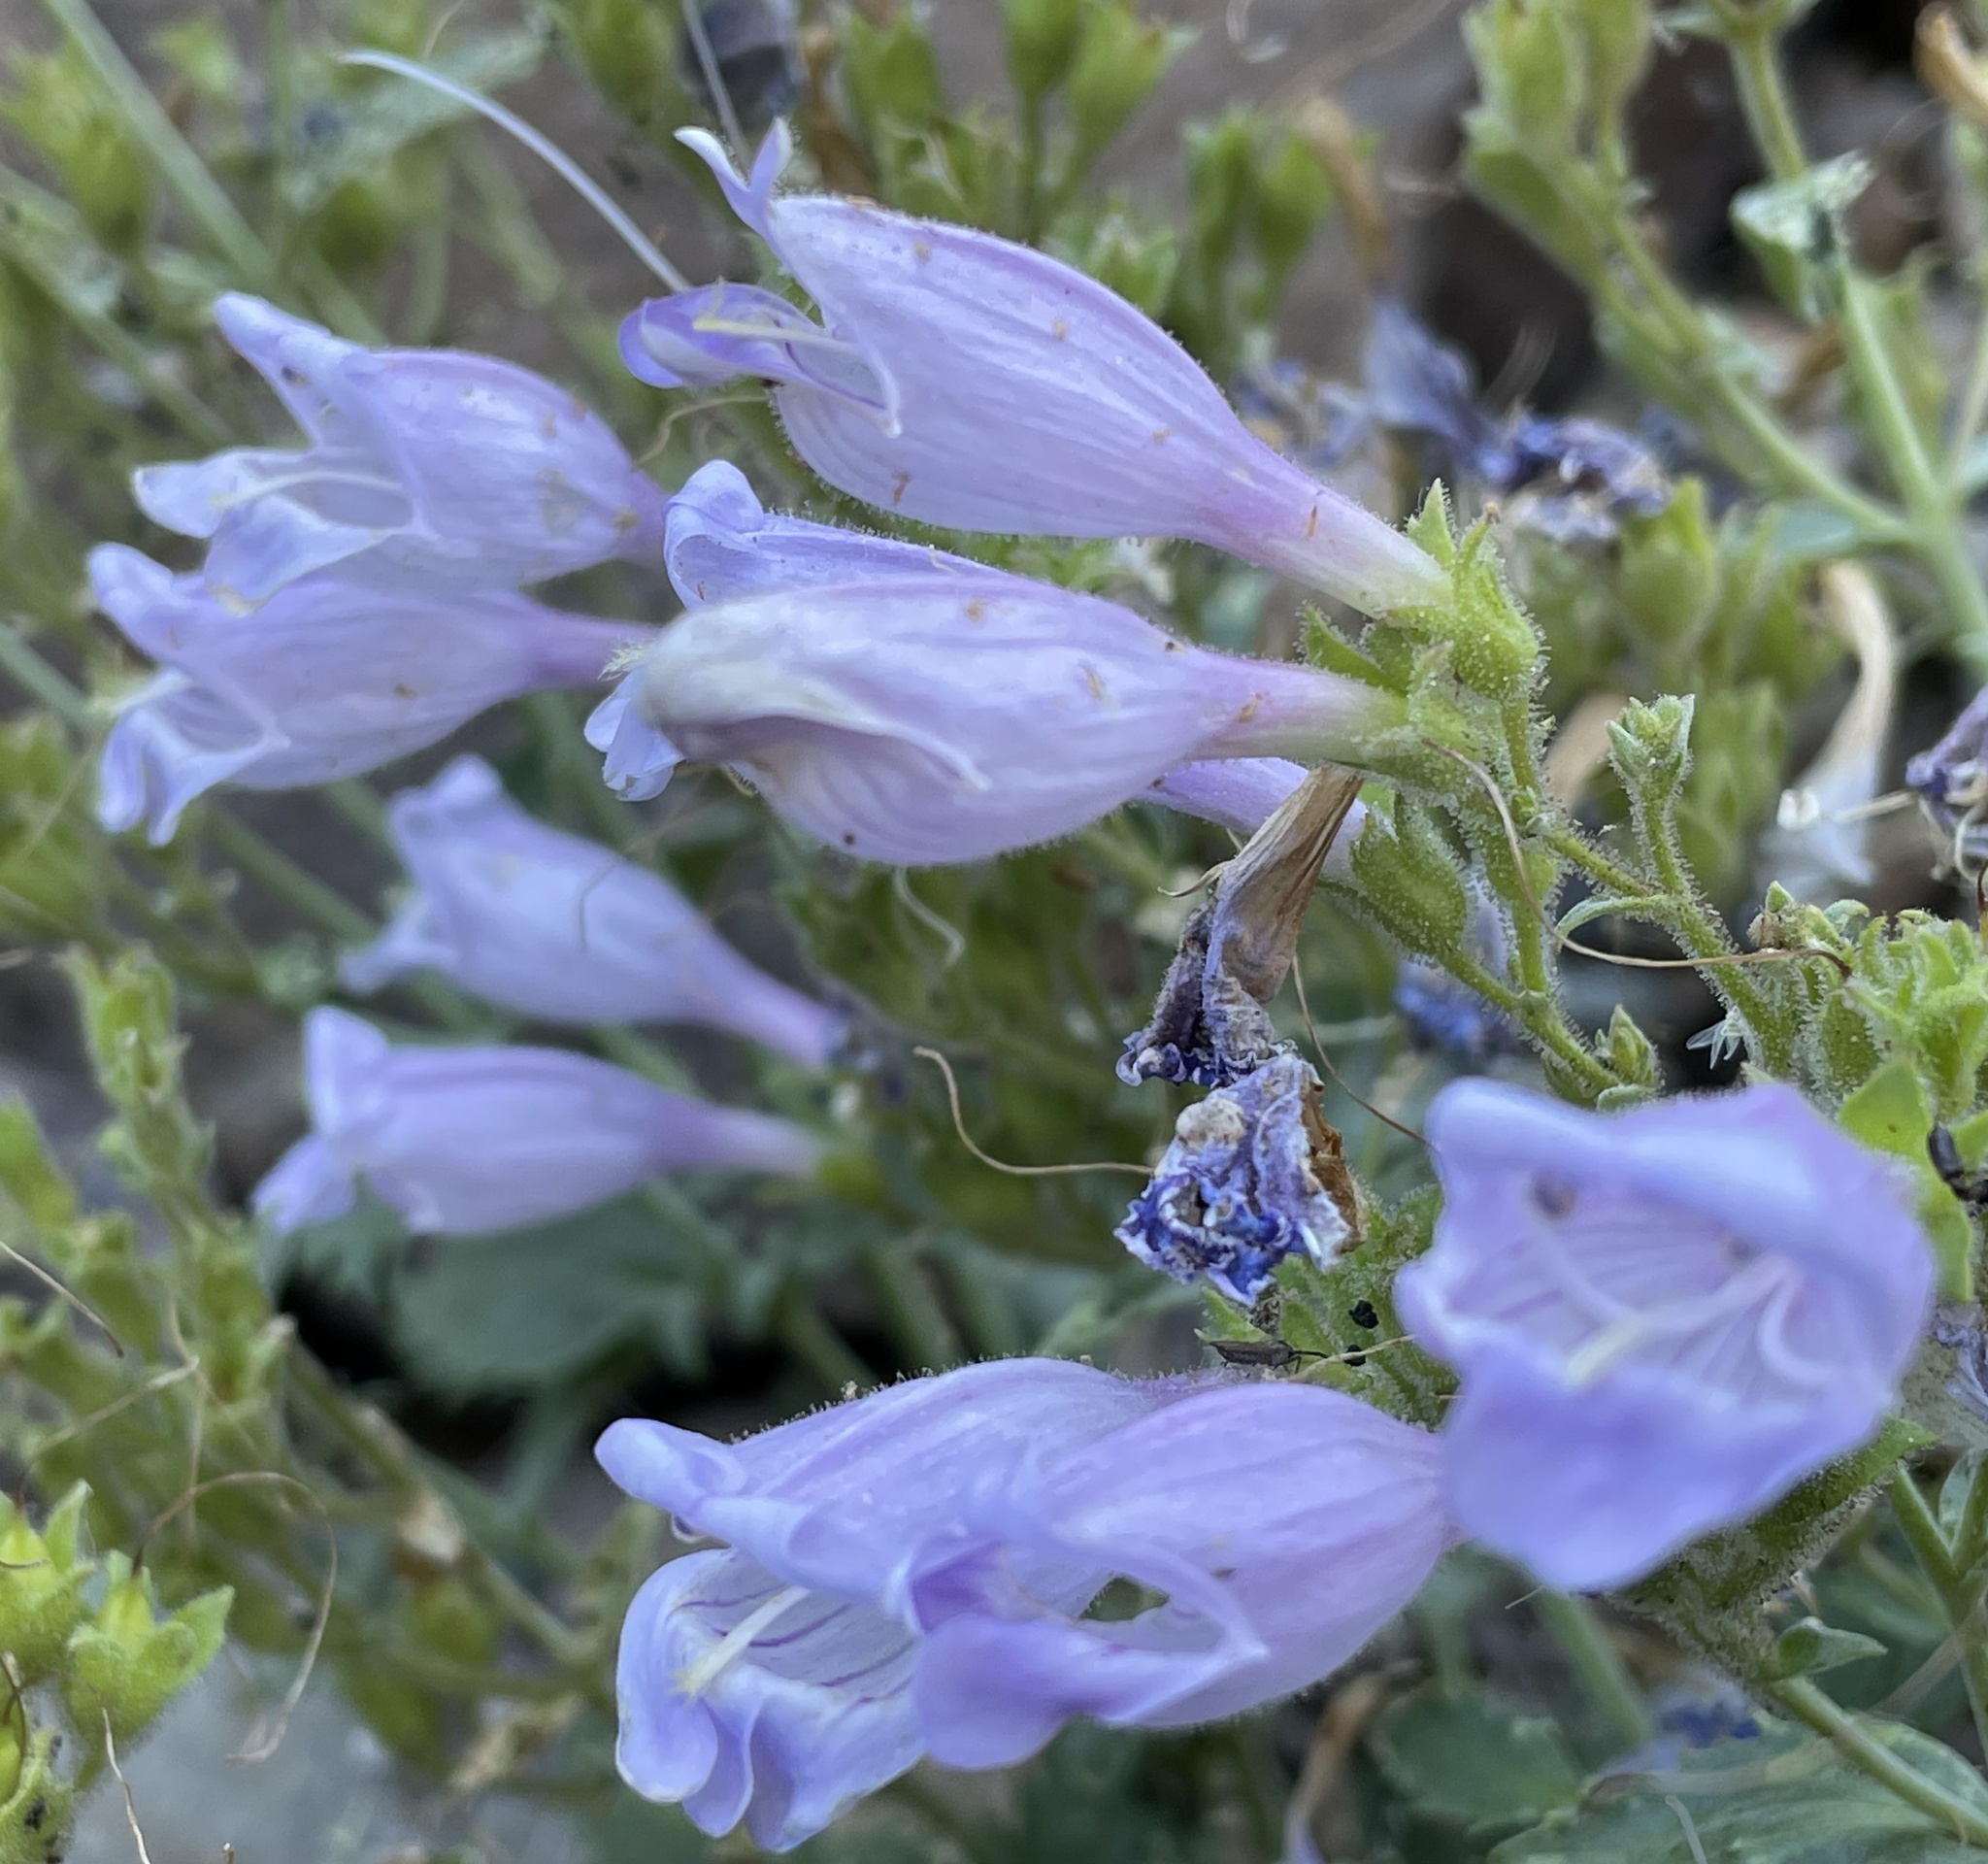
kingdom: Plantae
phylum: Tracheophyta
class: Magnoliopsida
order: Lamiales
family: Plantaginaceae
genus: Penstemon
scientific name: Penstemon richardsonii
